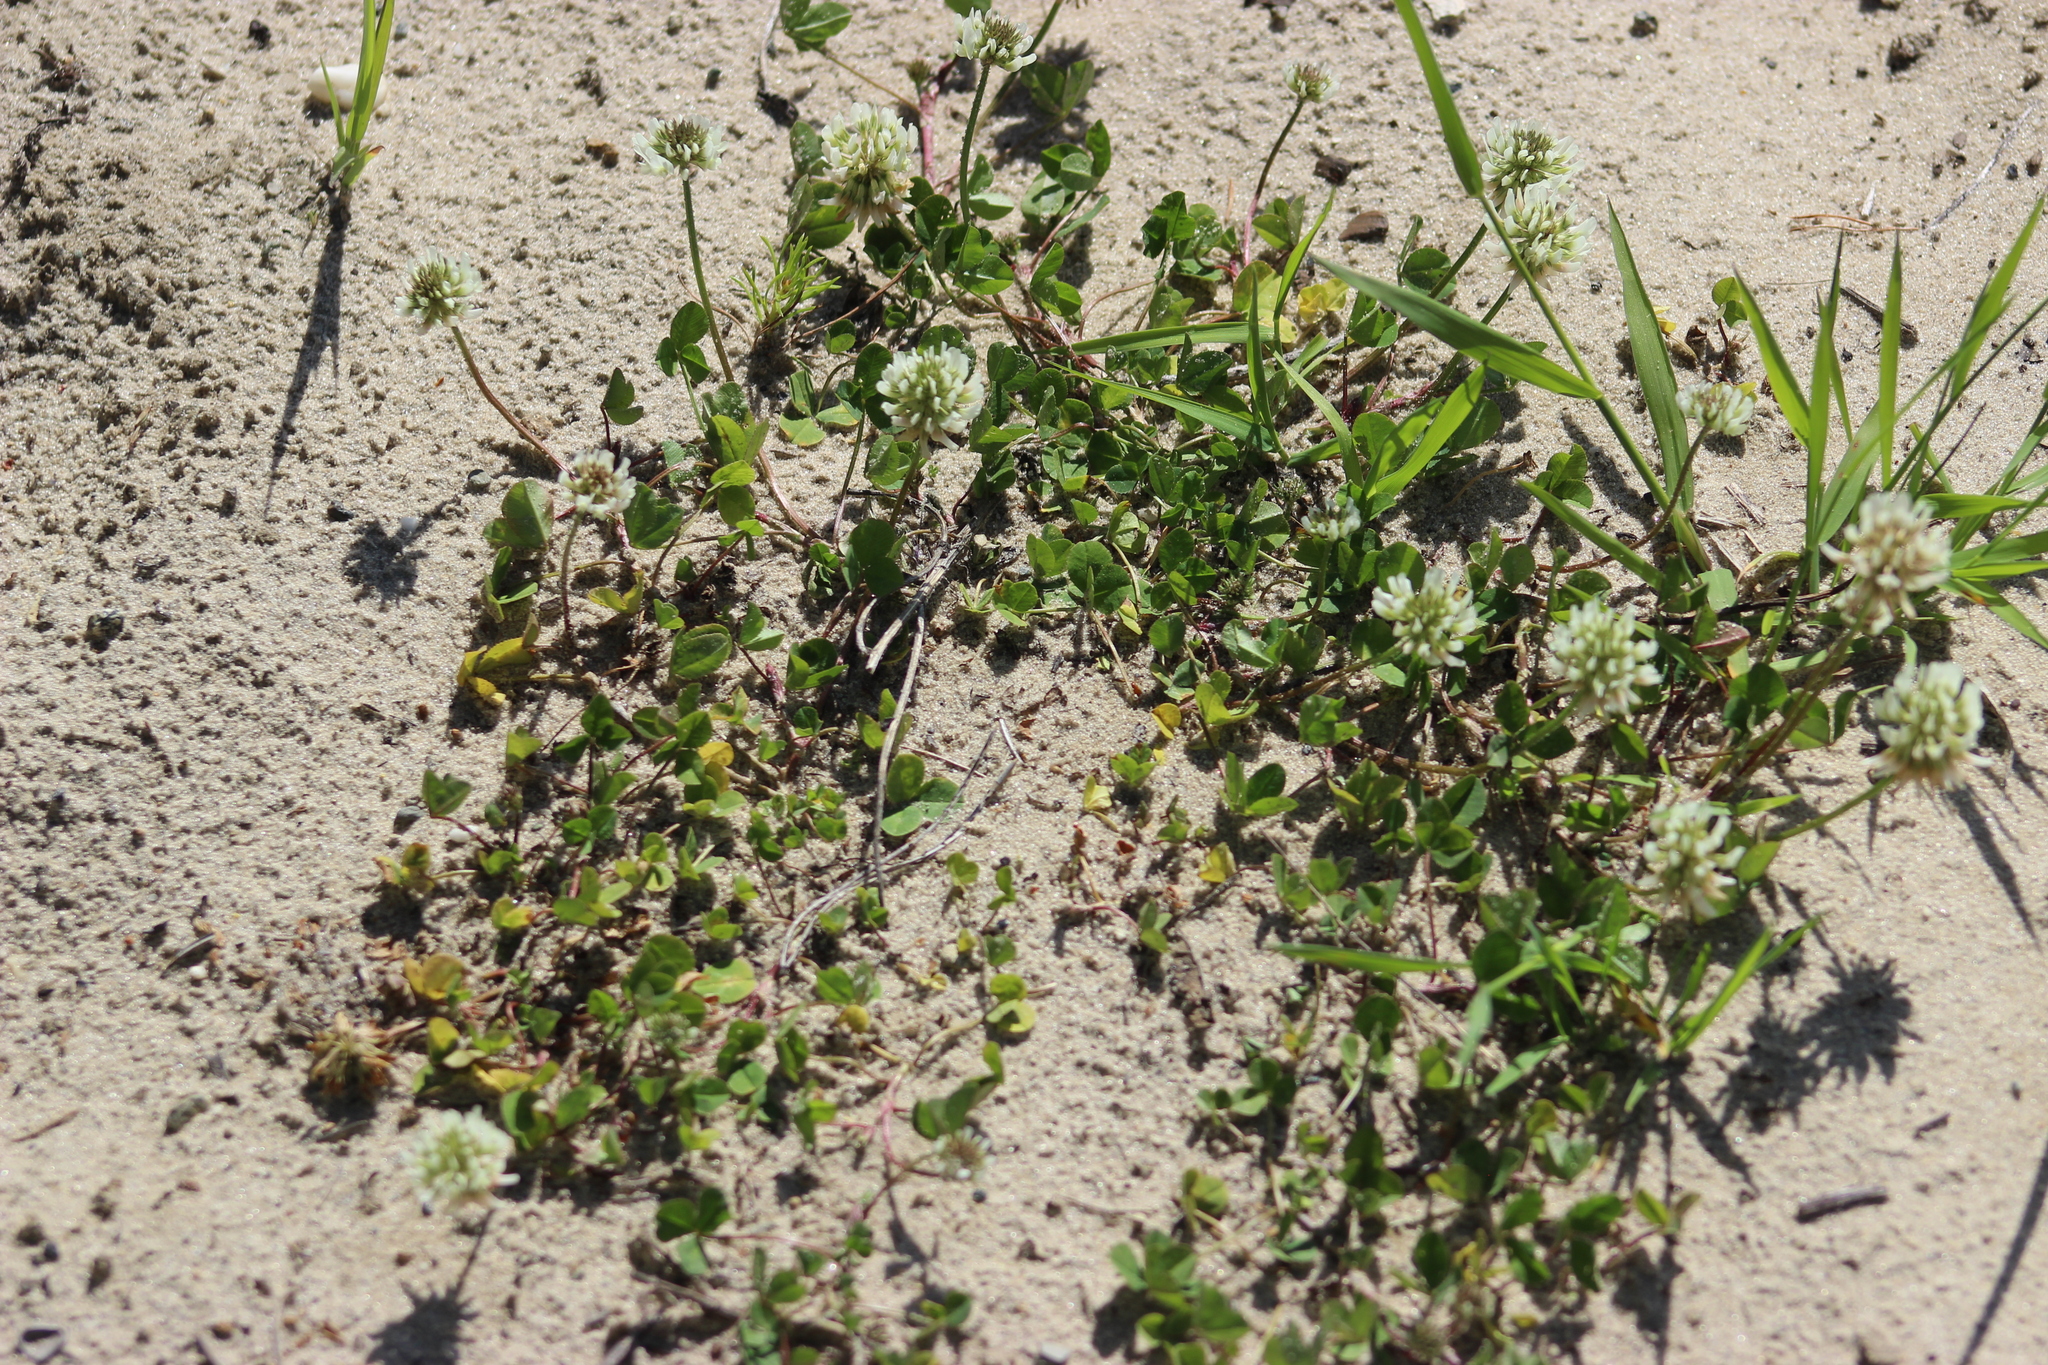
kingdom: Plantae
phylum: Tracheophyta
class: Magnoliopsida
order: Fabales
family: Fabaceae
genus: Trifolium
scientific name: Trifolium repens
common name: White clover
